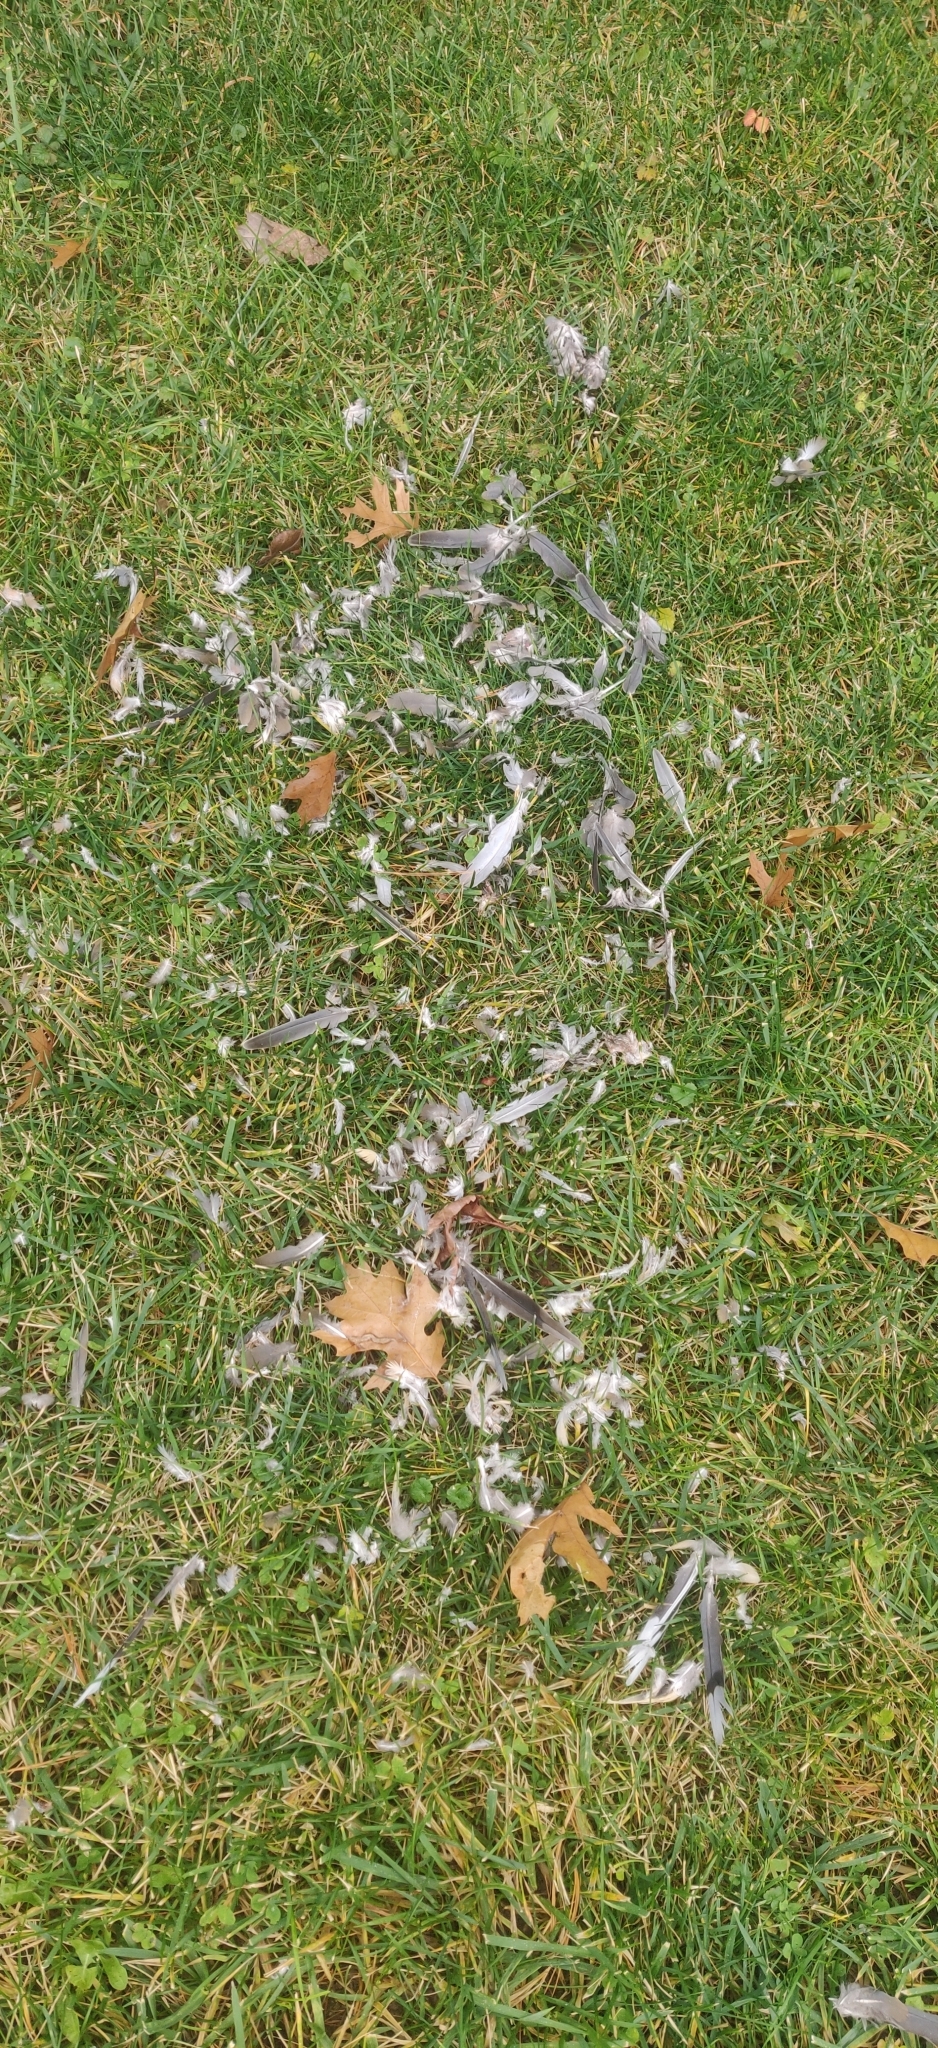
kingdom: Animalia
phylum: Chordata
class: Aves
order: Columbiformes
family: Columbidae
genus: Zenaida
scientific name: Zenaida macroura
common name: Mourning dove
